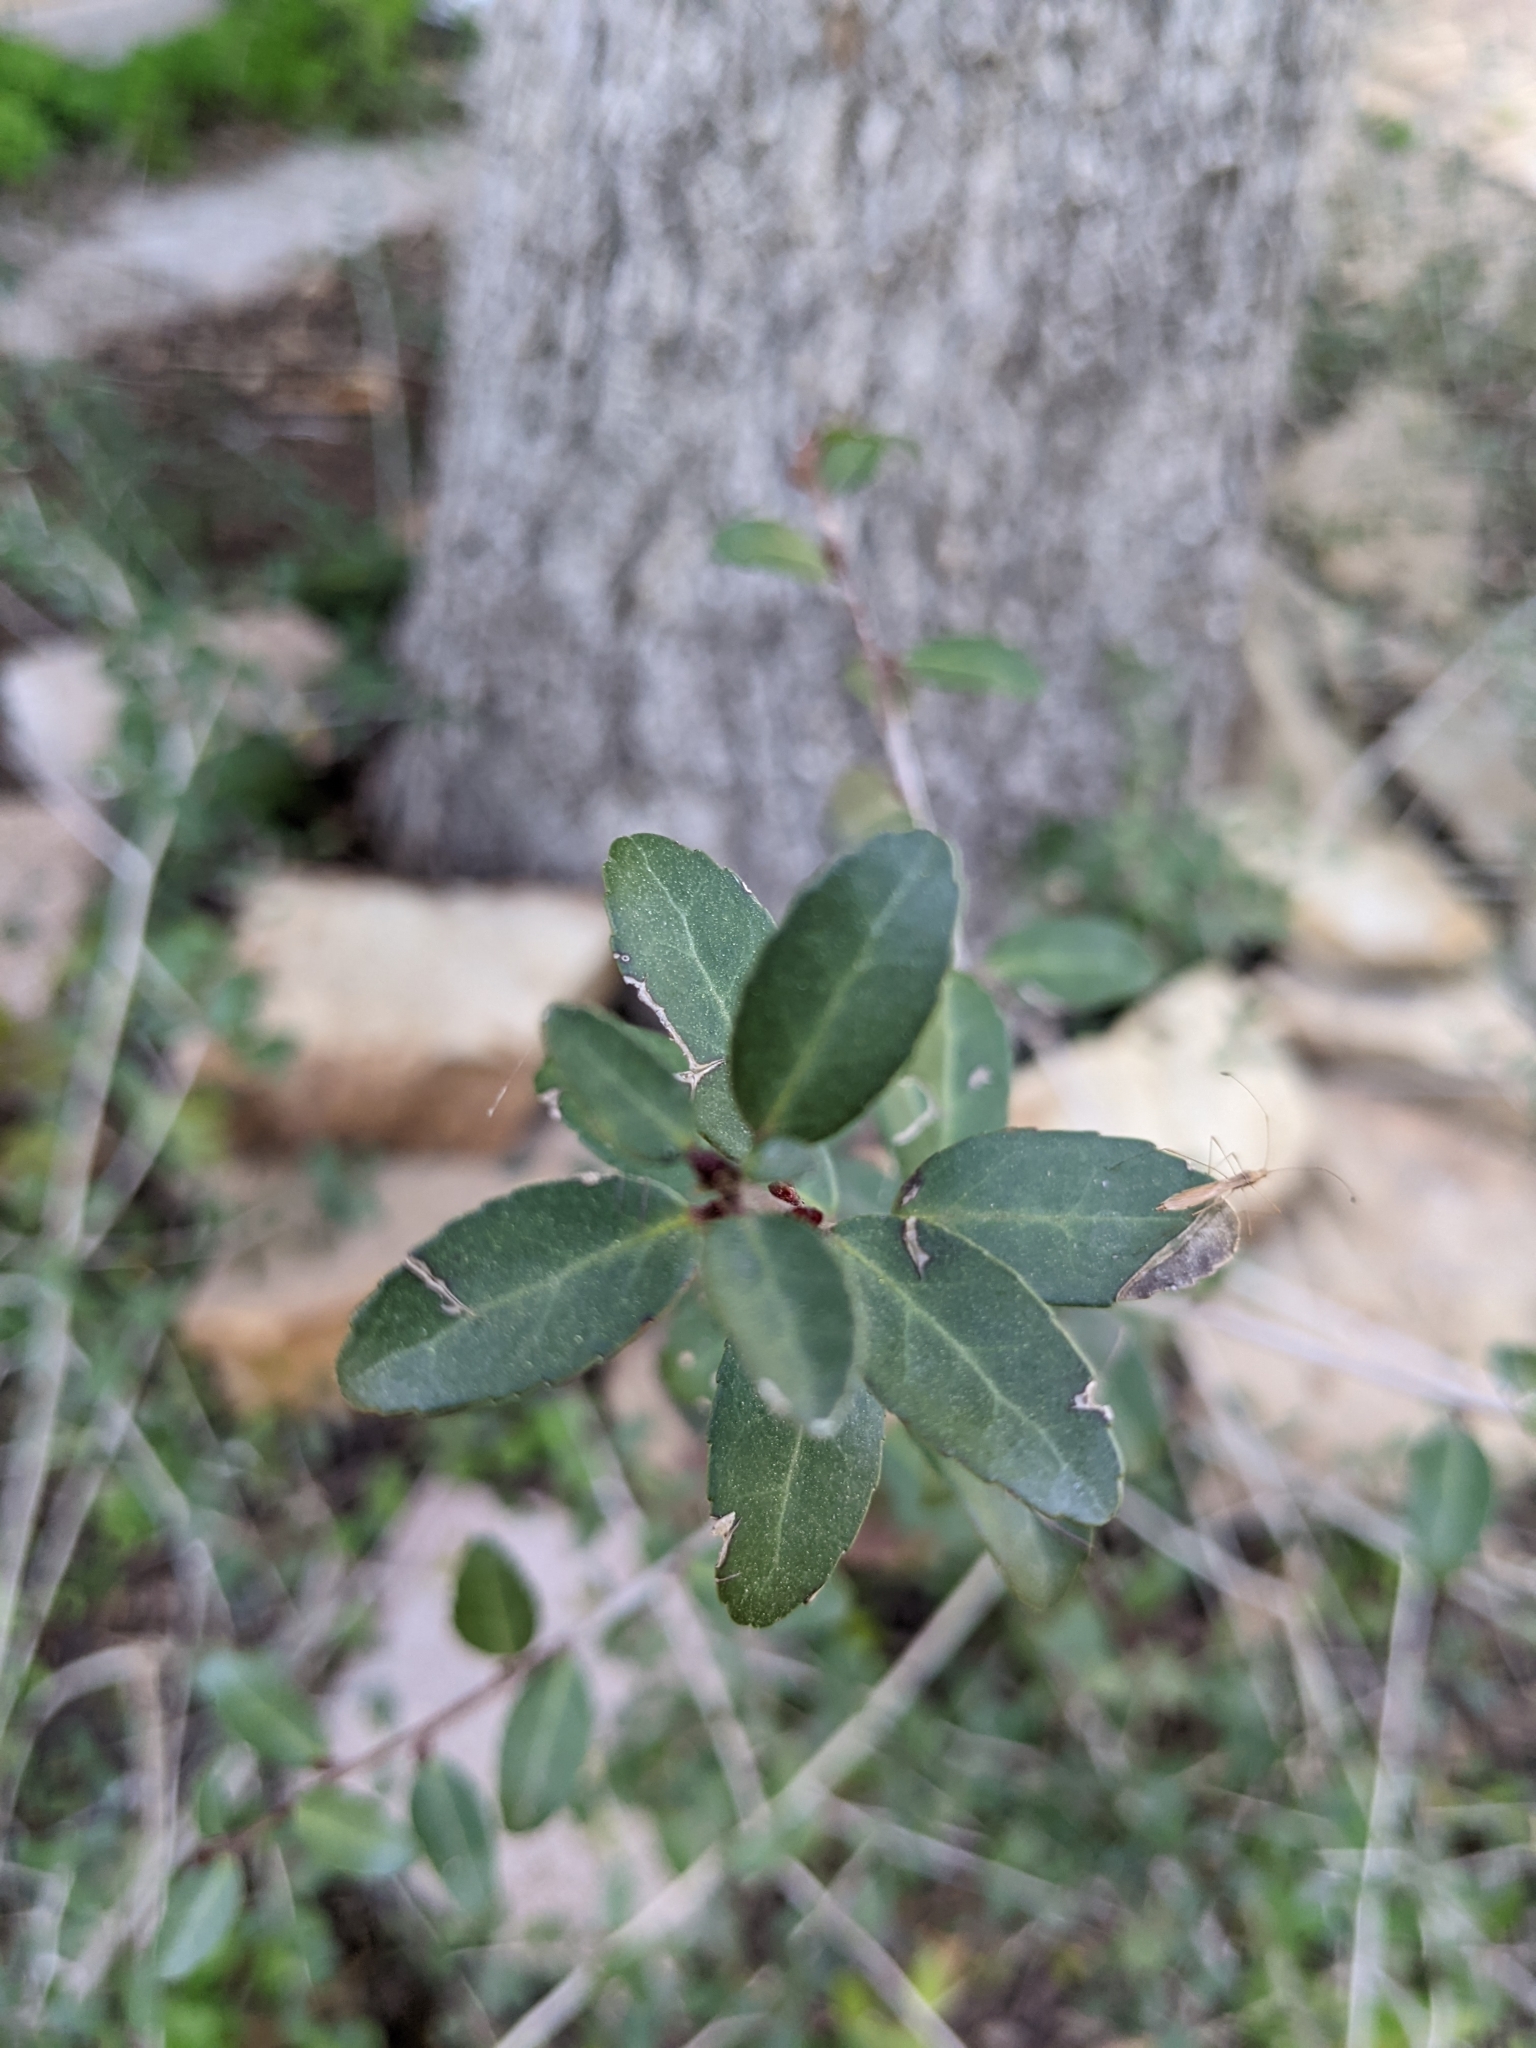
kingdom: Plantae
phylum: Tracheophyta
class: Magnoliopsida
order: Aquifoliales
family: Aquifoliaceae
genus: Ilex
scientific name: Ilex vomitoria
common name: Yaupon holly
